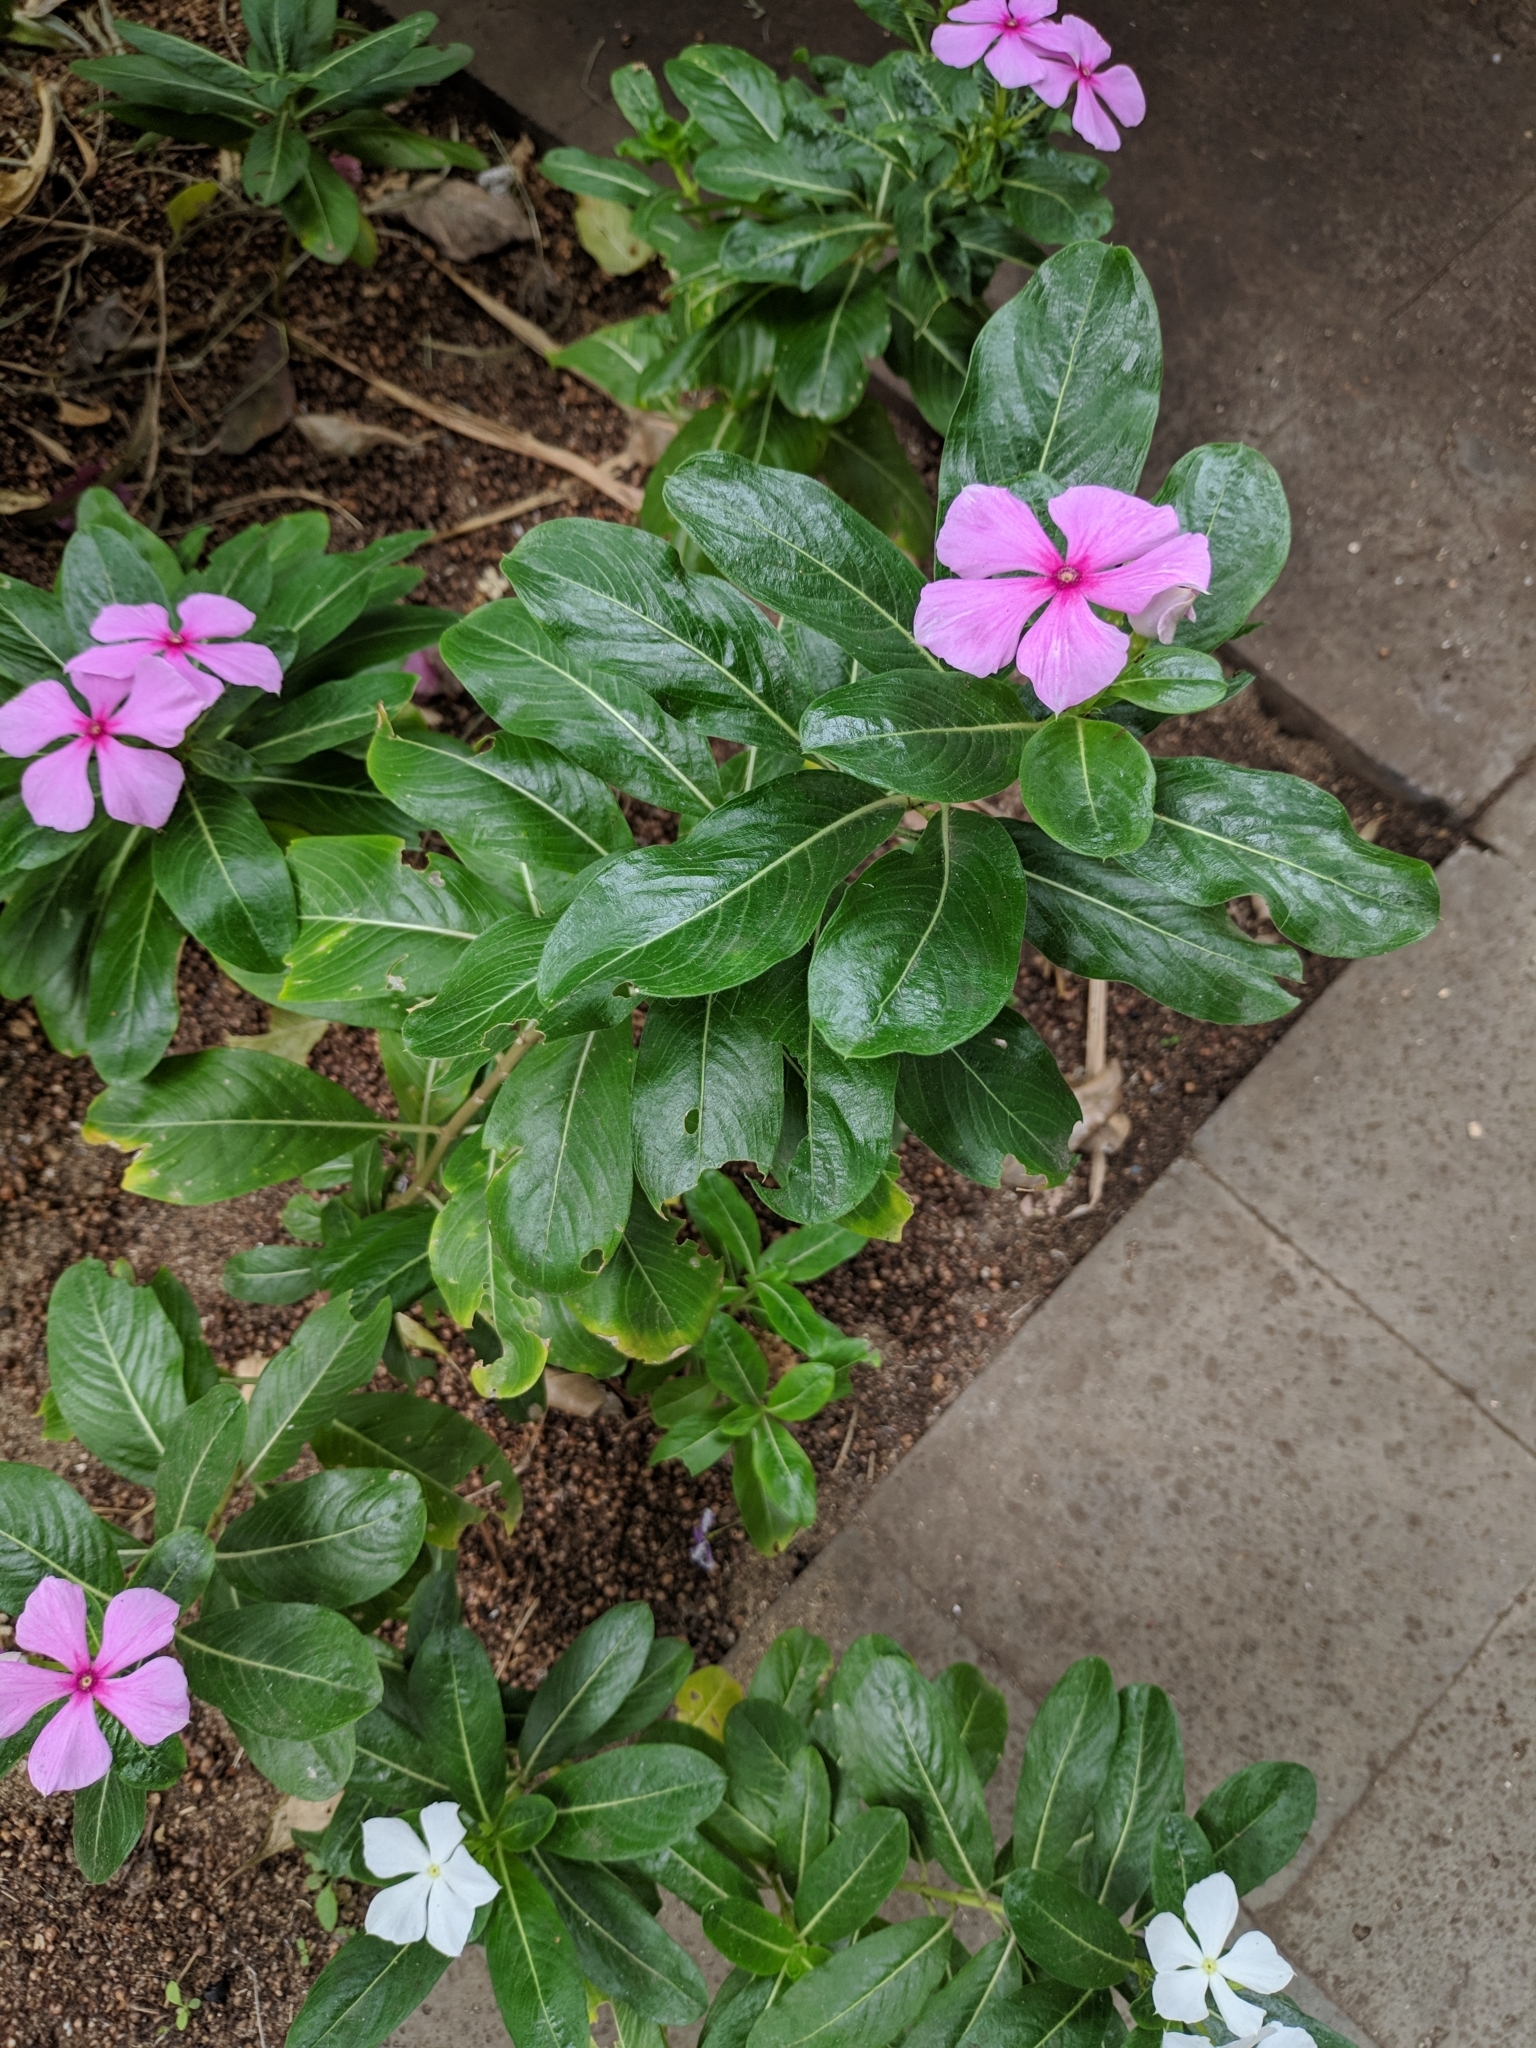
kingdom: Plantae
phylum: Tracheophyta
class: Magnoliopsida
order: Gentianales
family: Apocynaceae
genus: Catharanthus
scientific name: Catharanthus roseus
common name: Madagascar periwinkle
